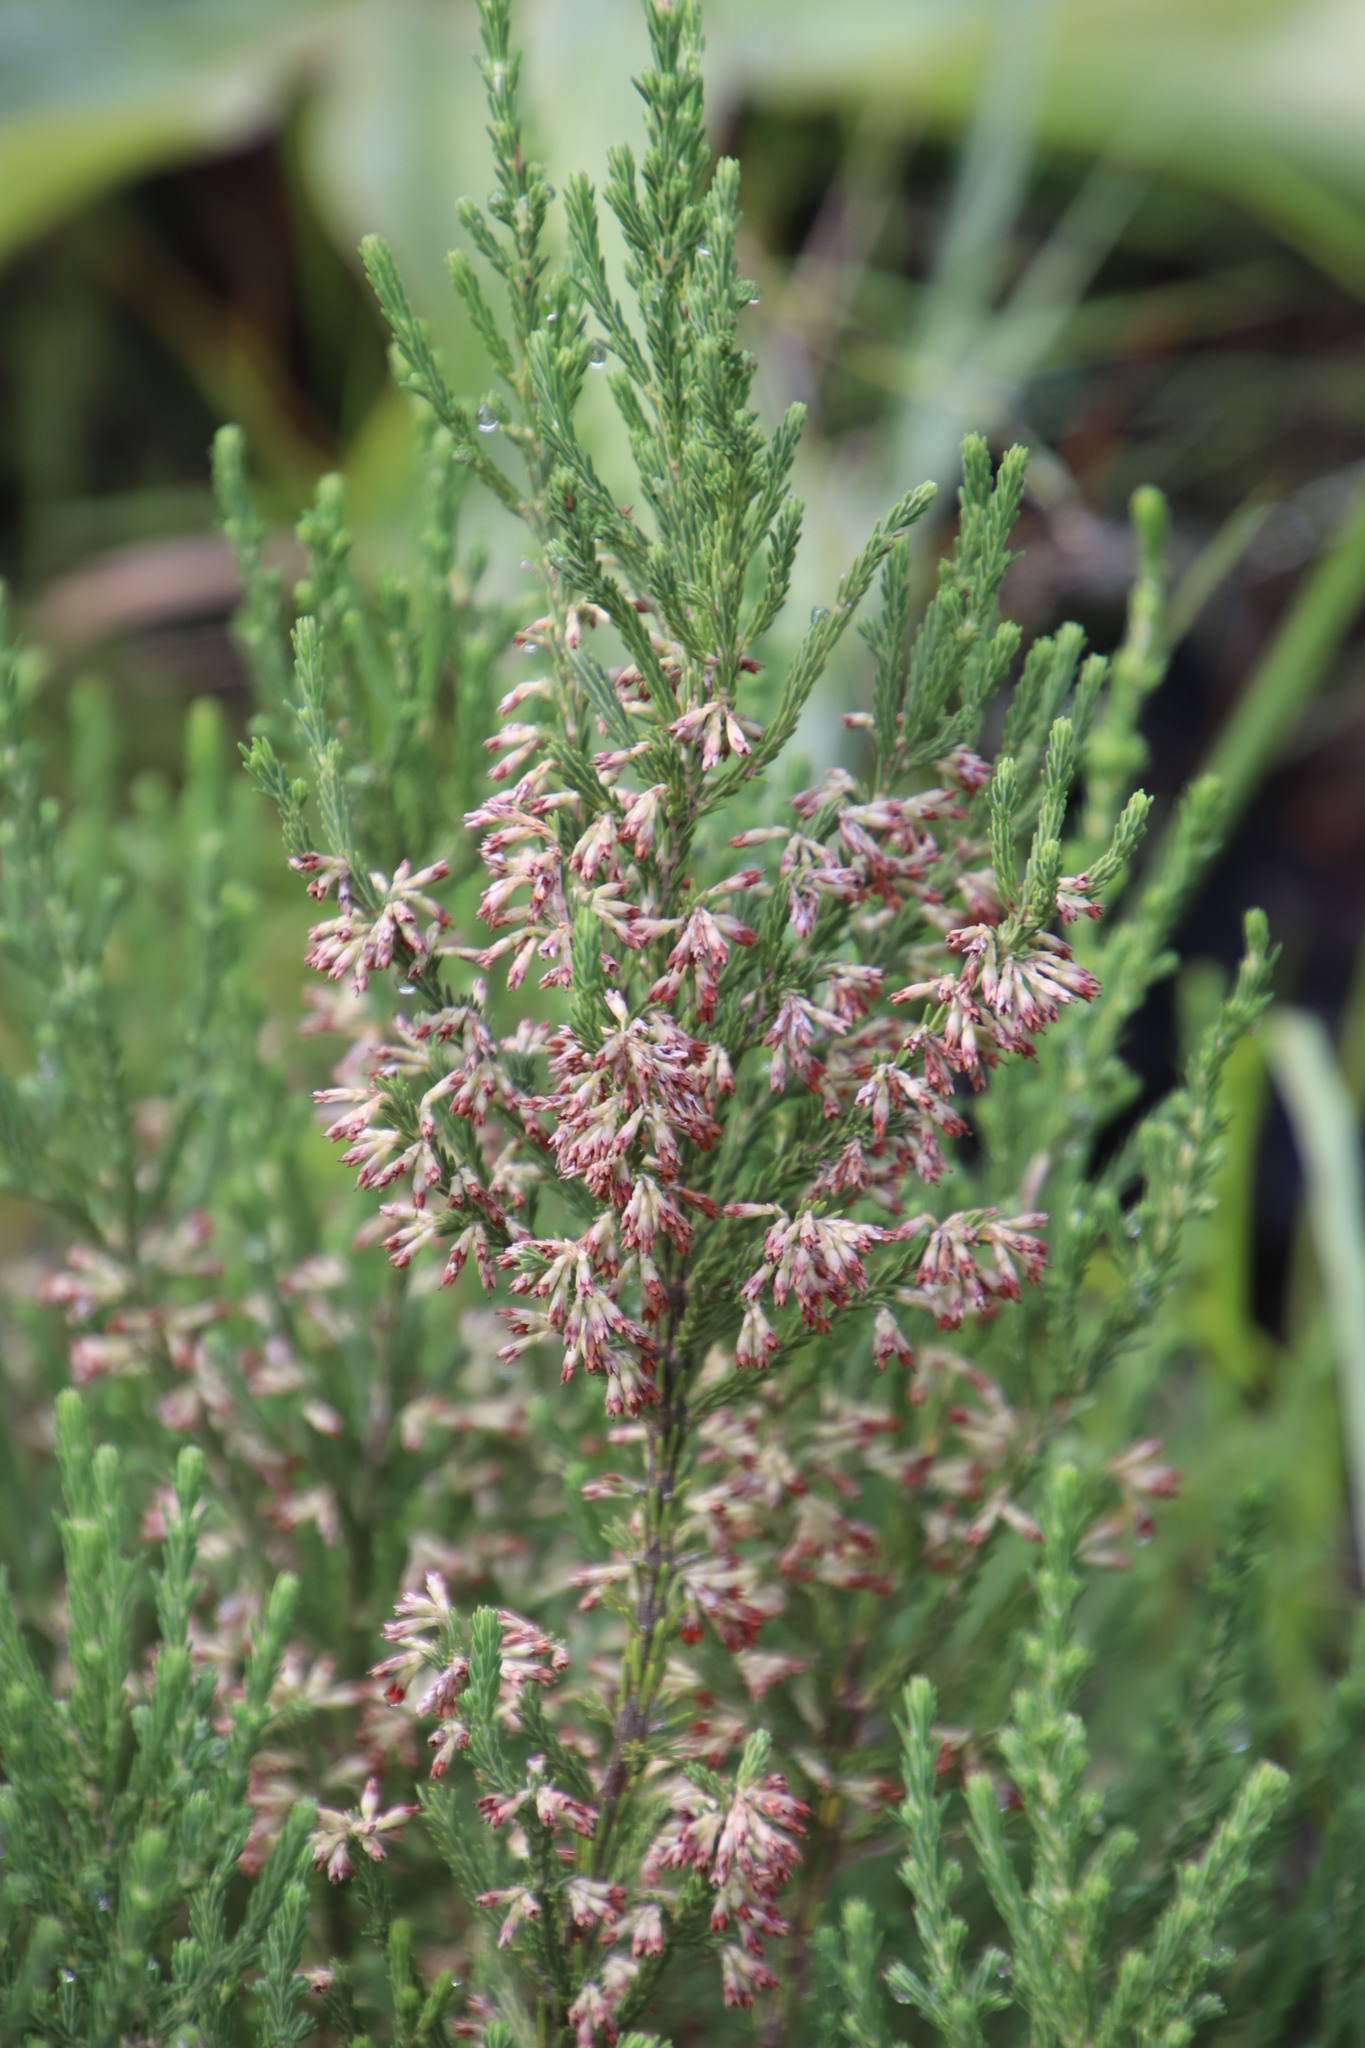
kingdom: Plantae
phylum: Tracheophyta
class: Magnoliopsida
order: Ericales
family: Ericaceae
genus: Erica
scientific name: Erica caffrorum
